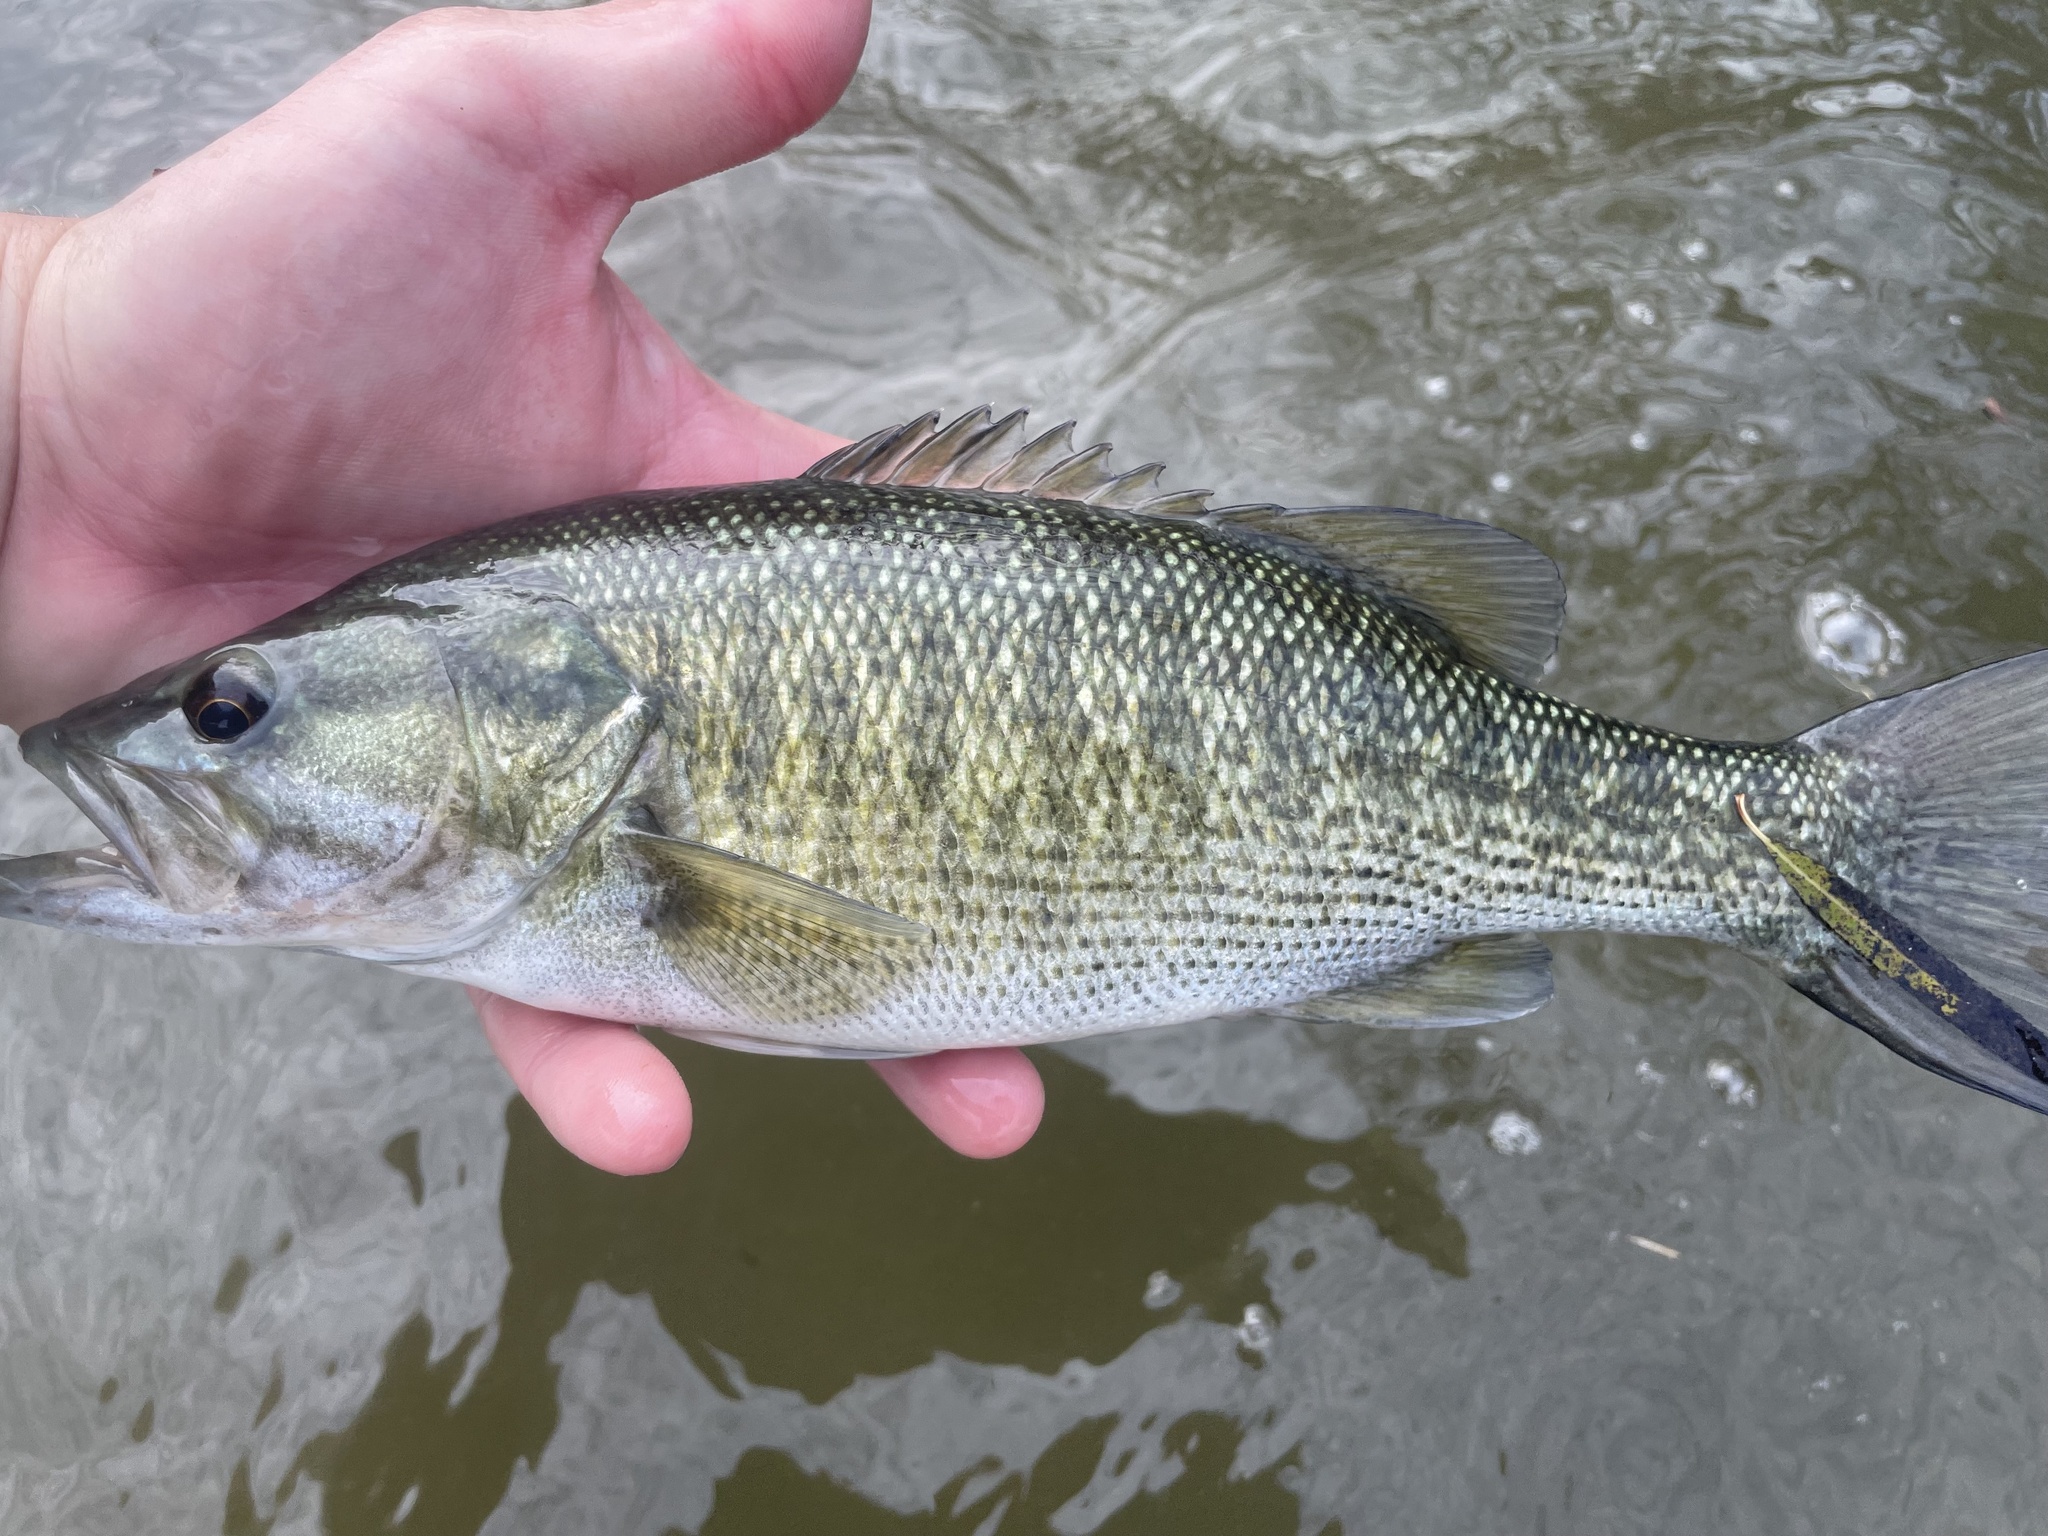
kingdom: Animalia
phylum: Chordata
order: Perciformes
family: Centrarchidae
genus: Micropterus
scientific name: Micropterus treculii
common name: Guadalupe bass
